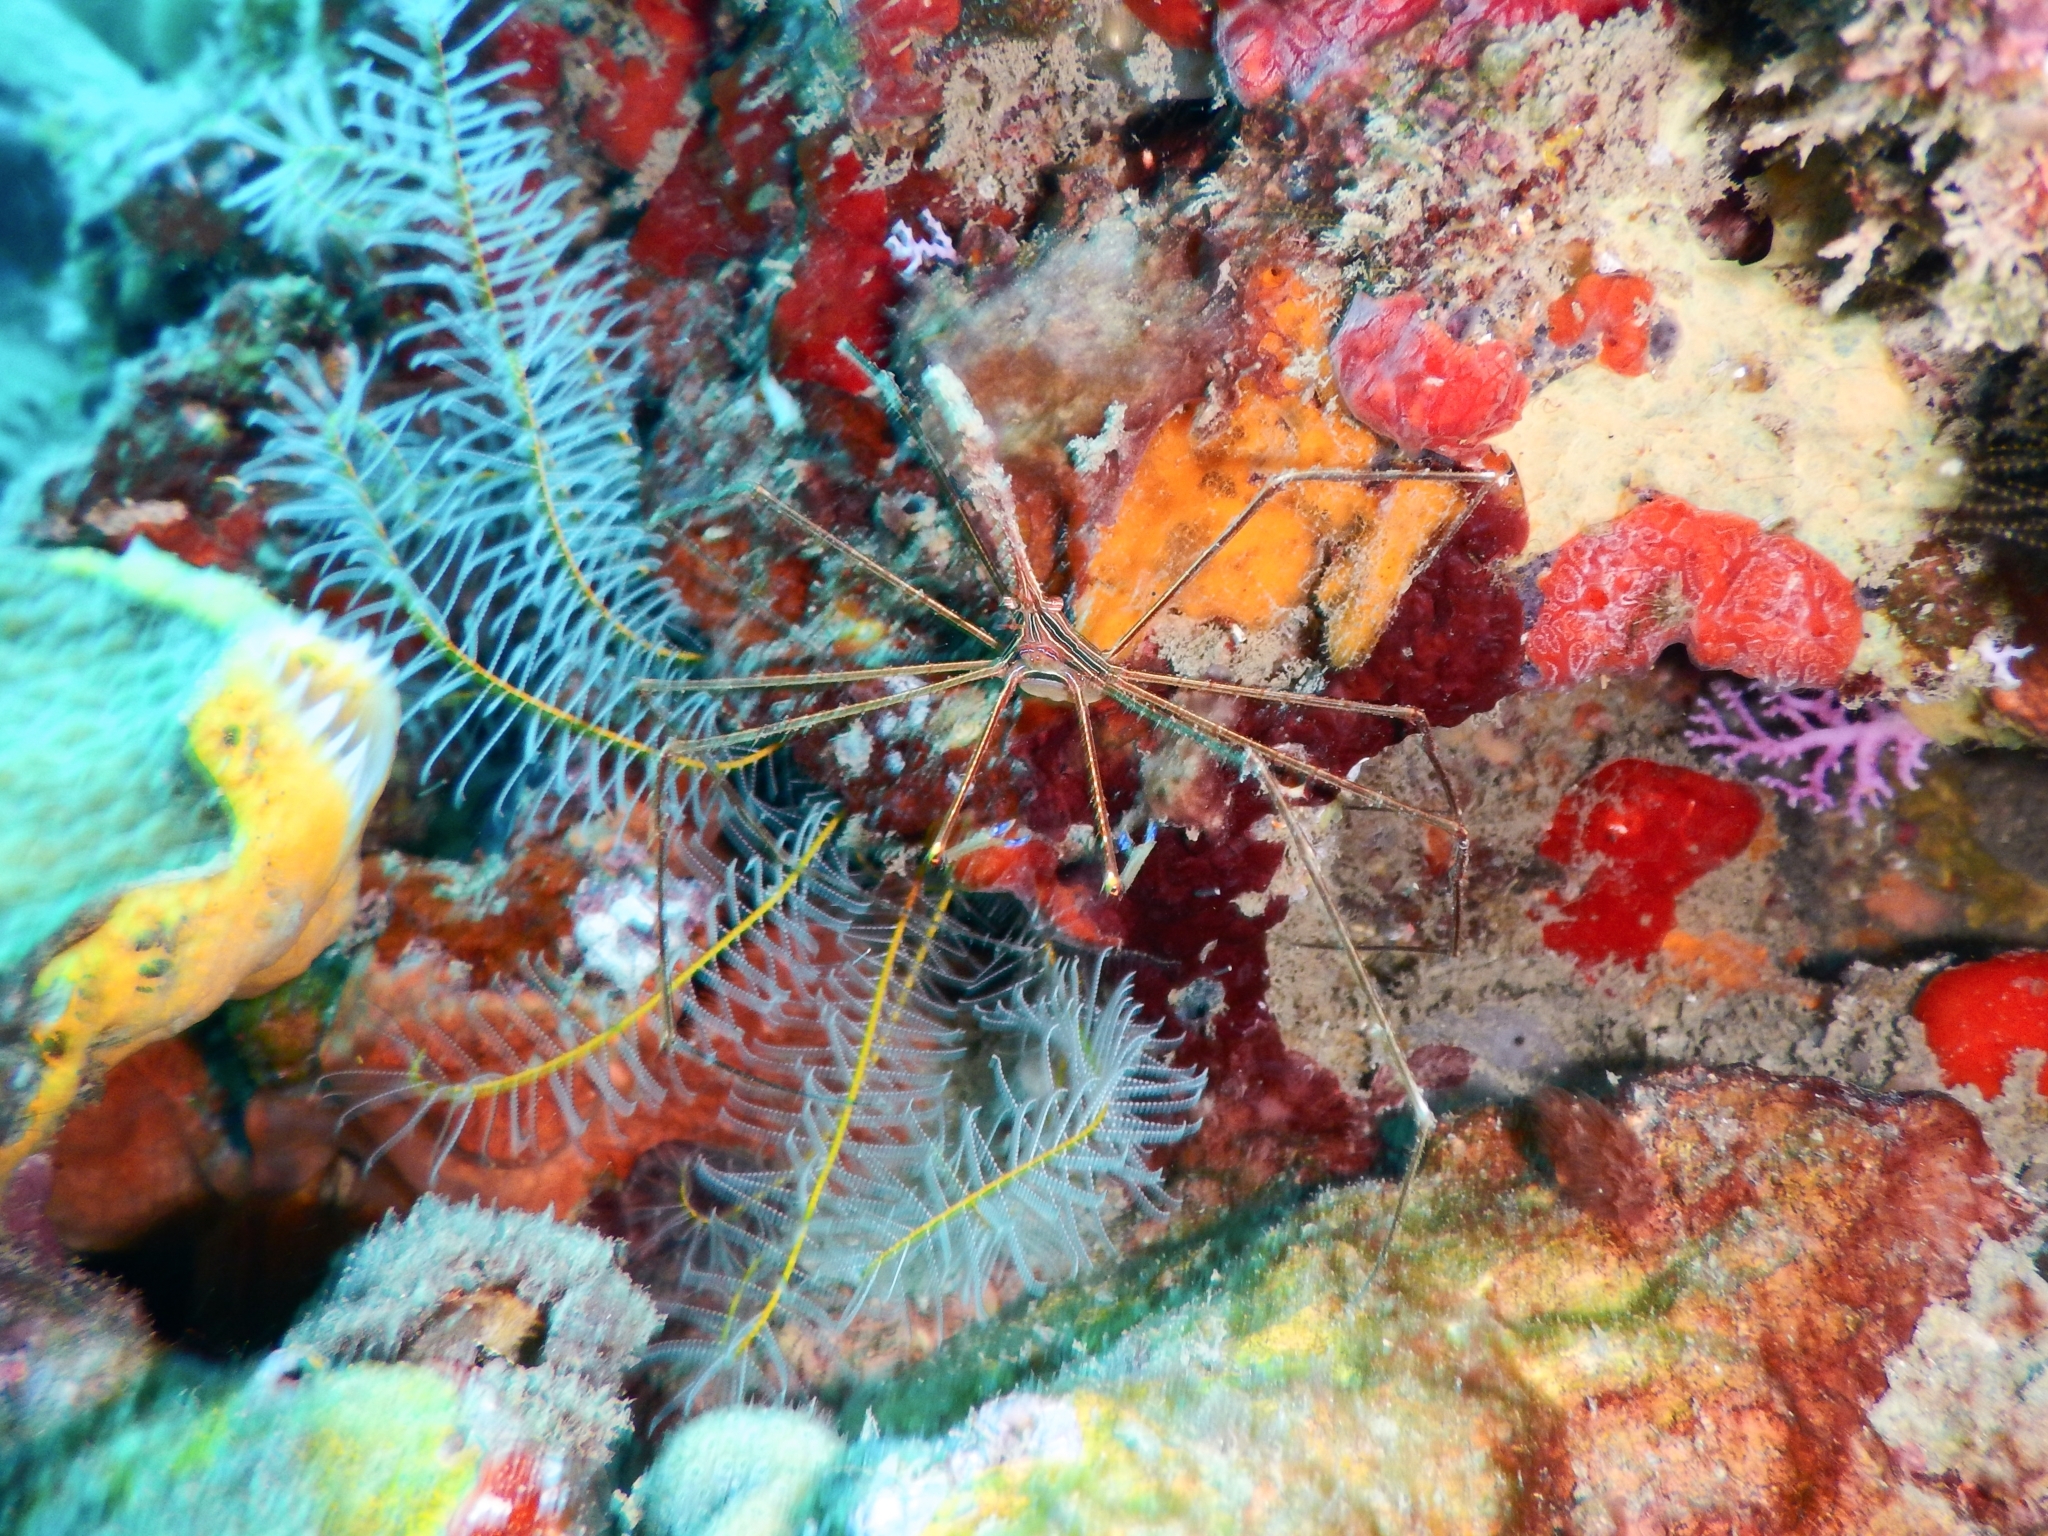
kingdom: Animalia
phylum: Arthropoda
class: Malacostraca
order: Decapoda
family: Inachoididae
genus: Stenorhynchus
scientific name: Stenorhynchus seticornis
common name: Arrow crab
